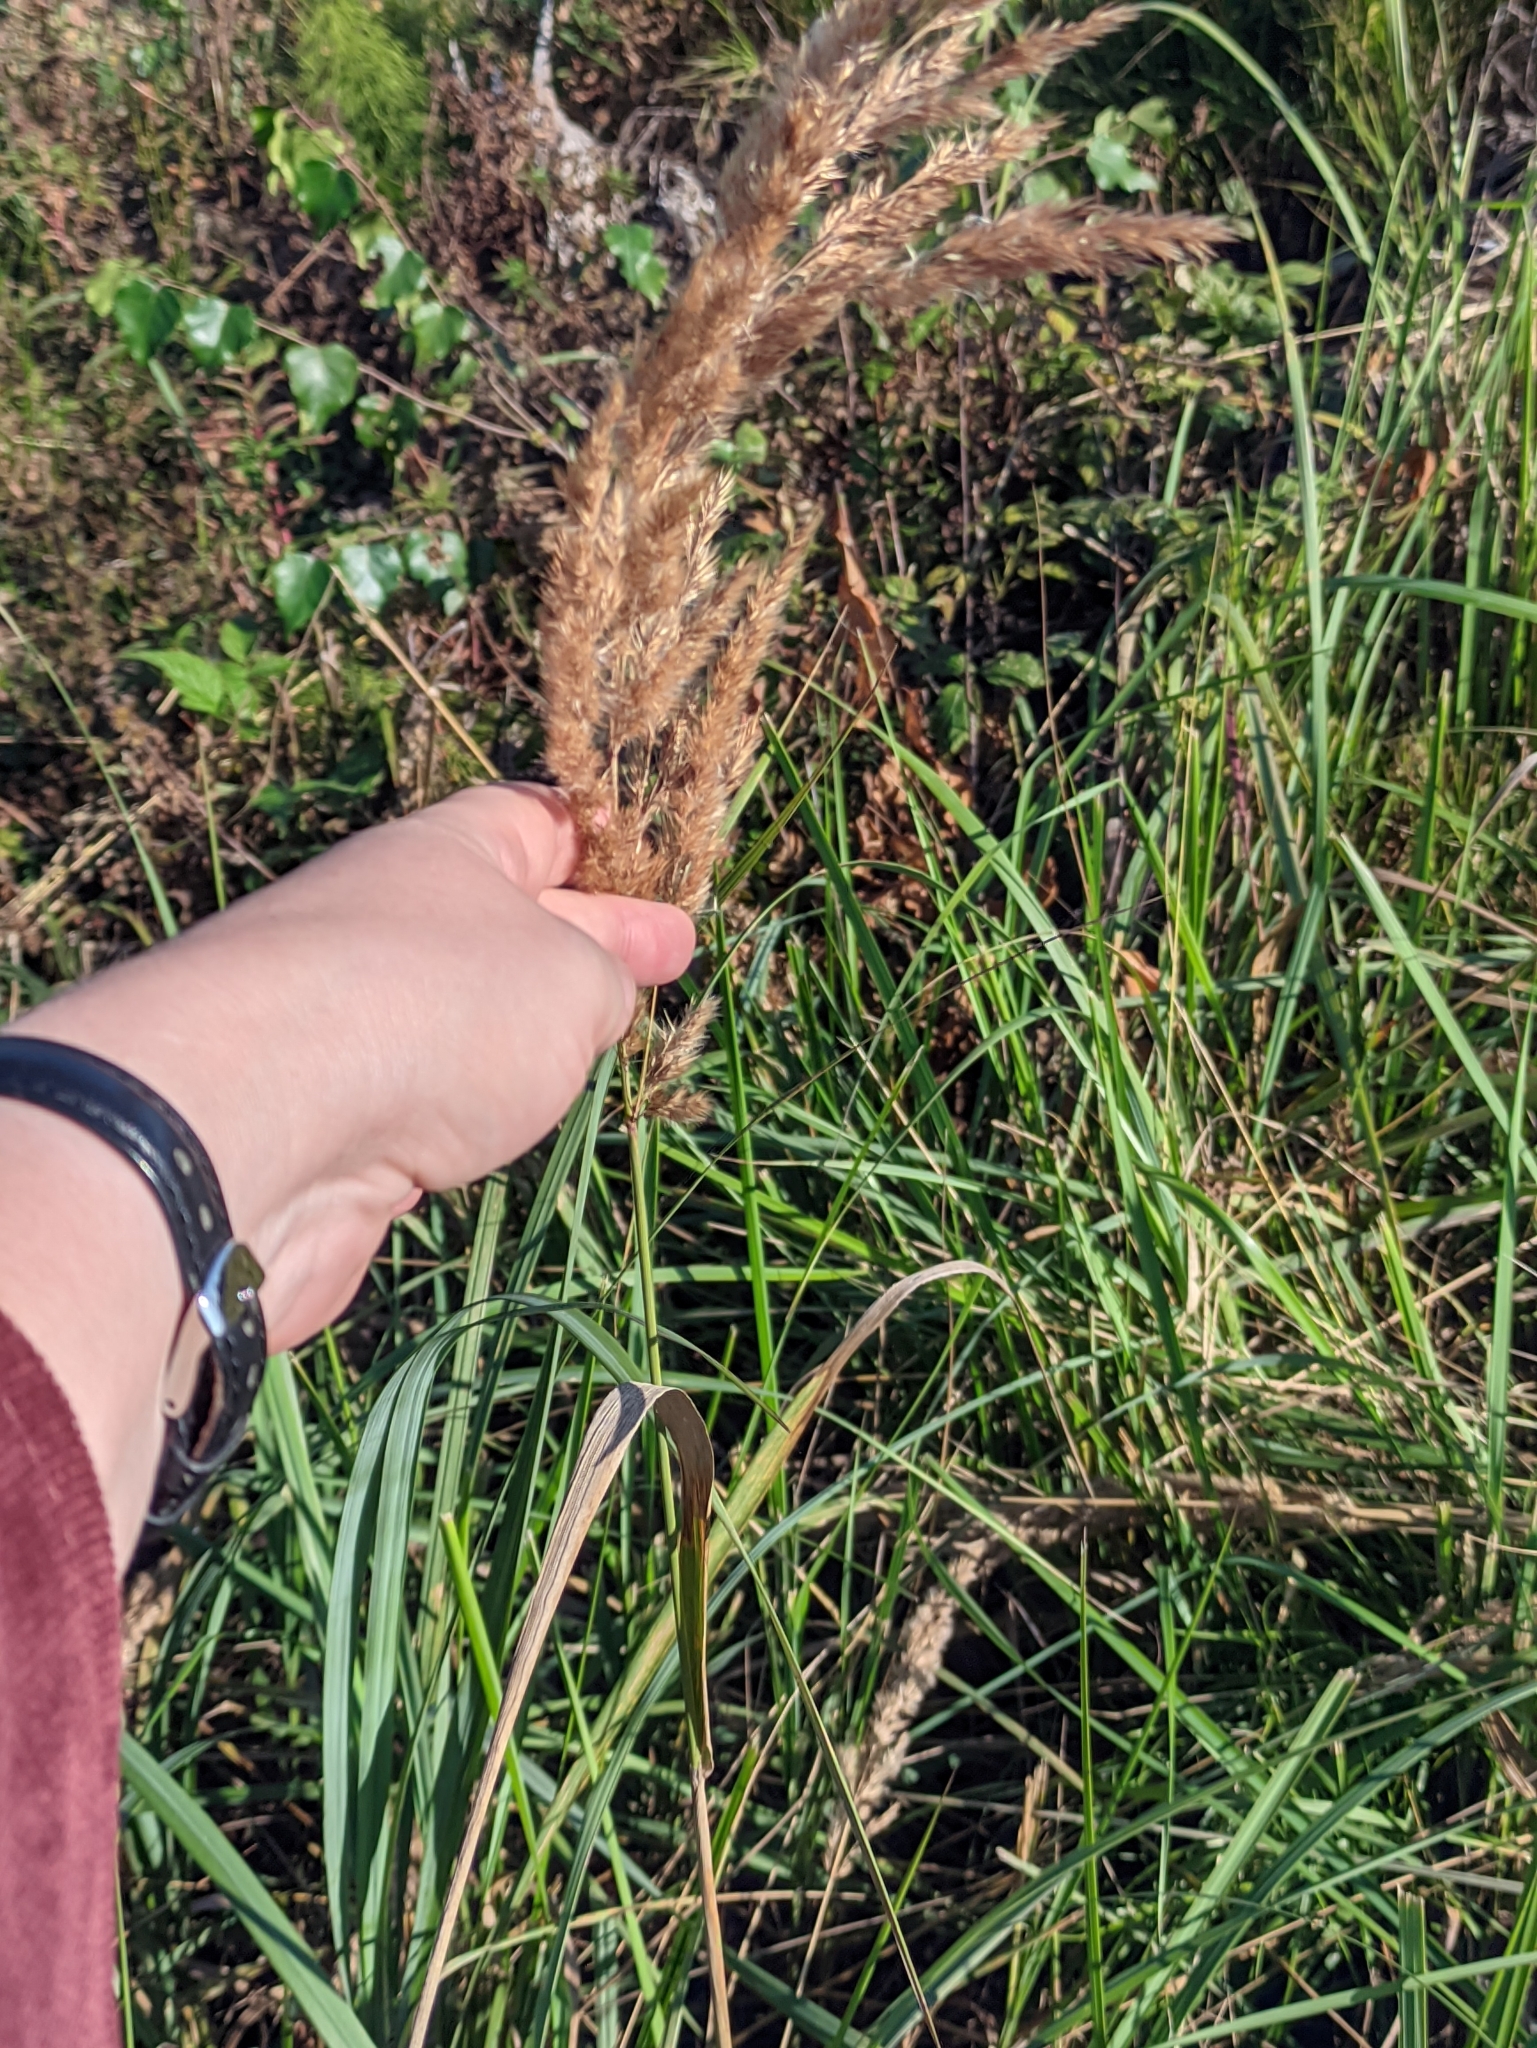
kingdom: Plantae
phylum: Tracheophyta
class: Liliopsida
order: Poales
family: Poaceae
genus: Calamagrostis
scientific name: Calamagrostis epigejos
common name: Wood small-reed
